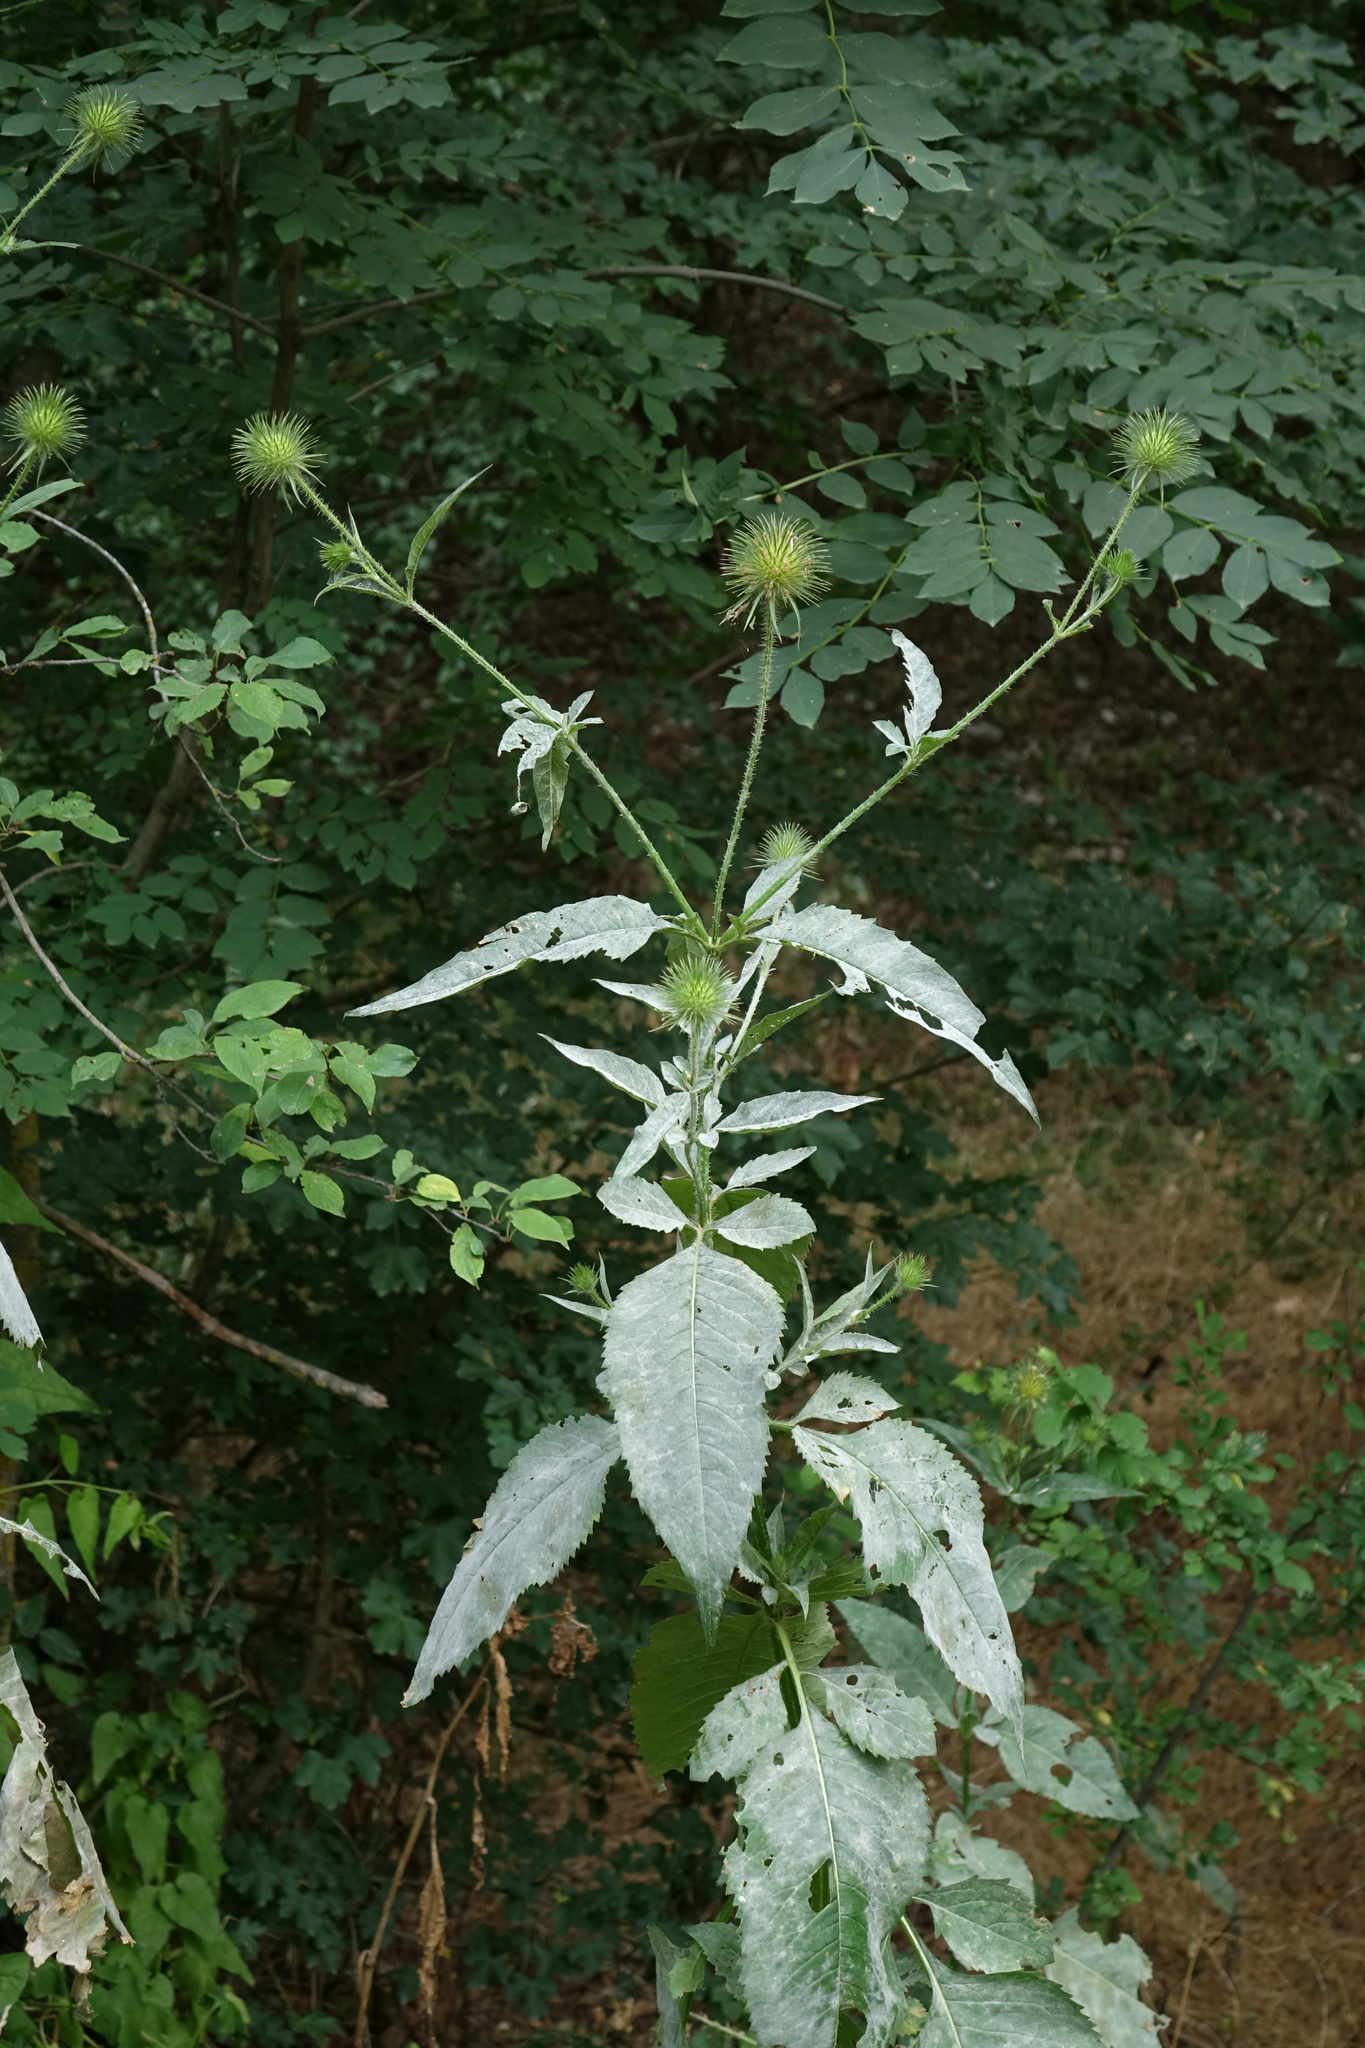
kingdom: Plantae
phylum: Tracheophyta
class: Magnoliopsida
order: Dipsacales
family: Caprifoliaceae
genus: Dipsacus
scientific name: Dipsacus strigosus
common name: Yellow-flowered teasel
